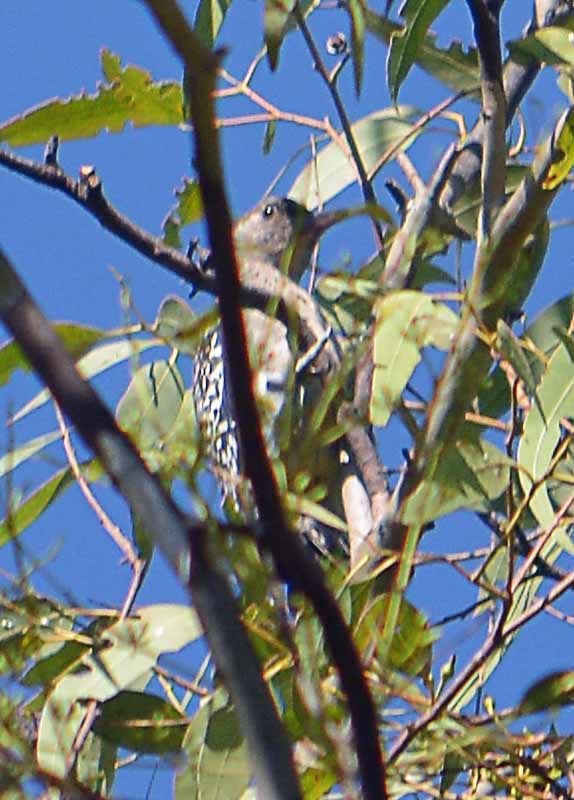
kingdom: Animalia
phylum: Chordata
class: Aves
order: Piciformes
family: Picidae
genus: Melanerpes
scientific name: Melanerpes aurifrons
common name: Golden-fronted woodpecker
